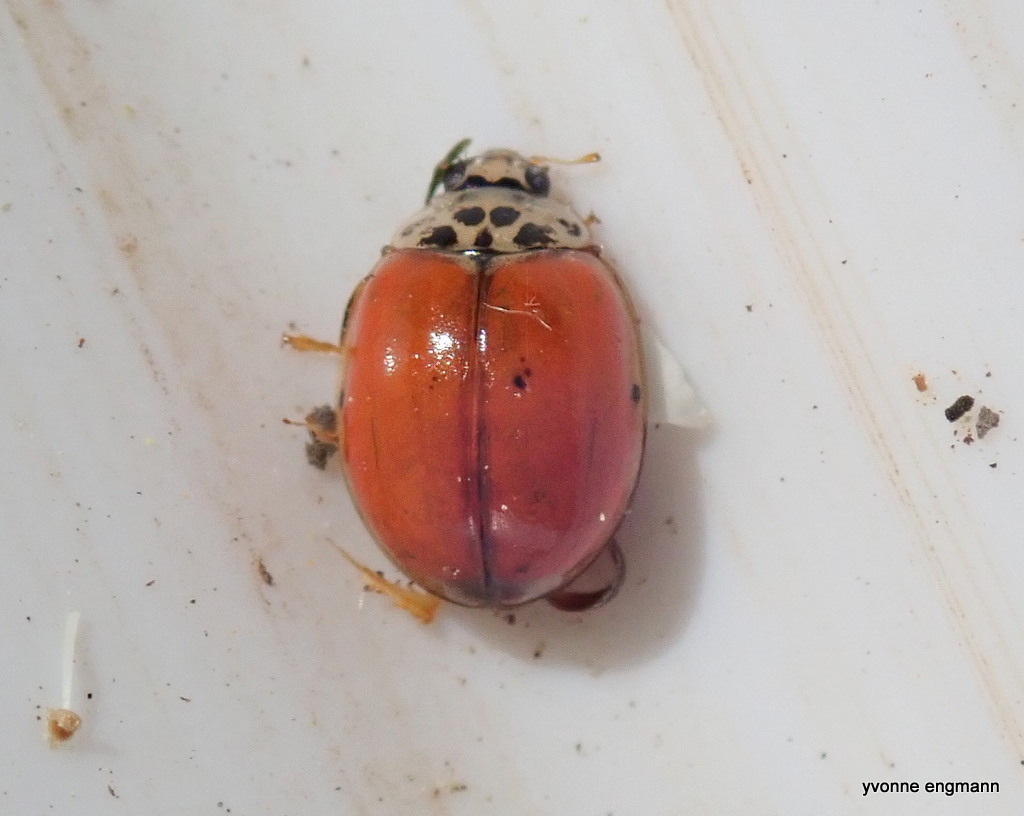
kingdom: Animalia
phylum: Arthropoda
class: Insecta
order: Coleoptera
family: Coccinellidae
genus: Adalia
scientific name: Adalia decempunctata
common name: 10-spot ladybird
